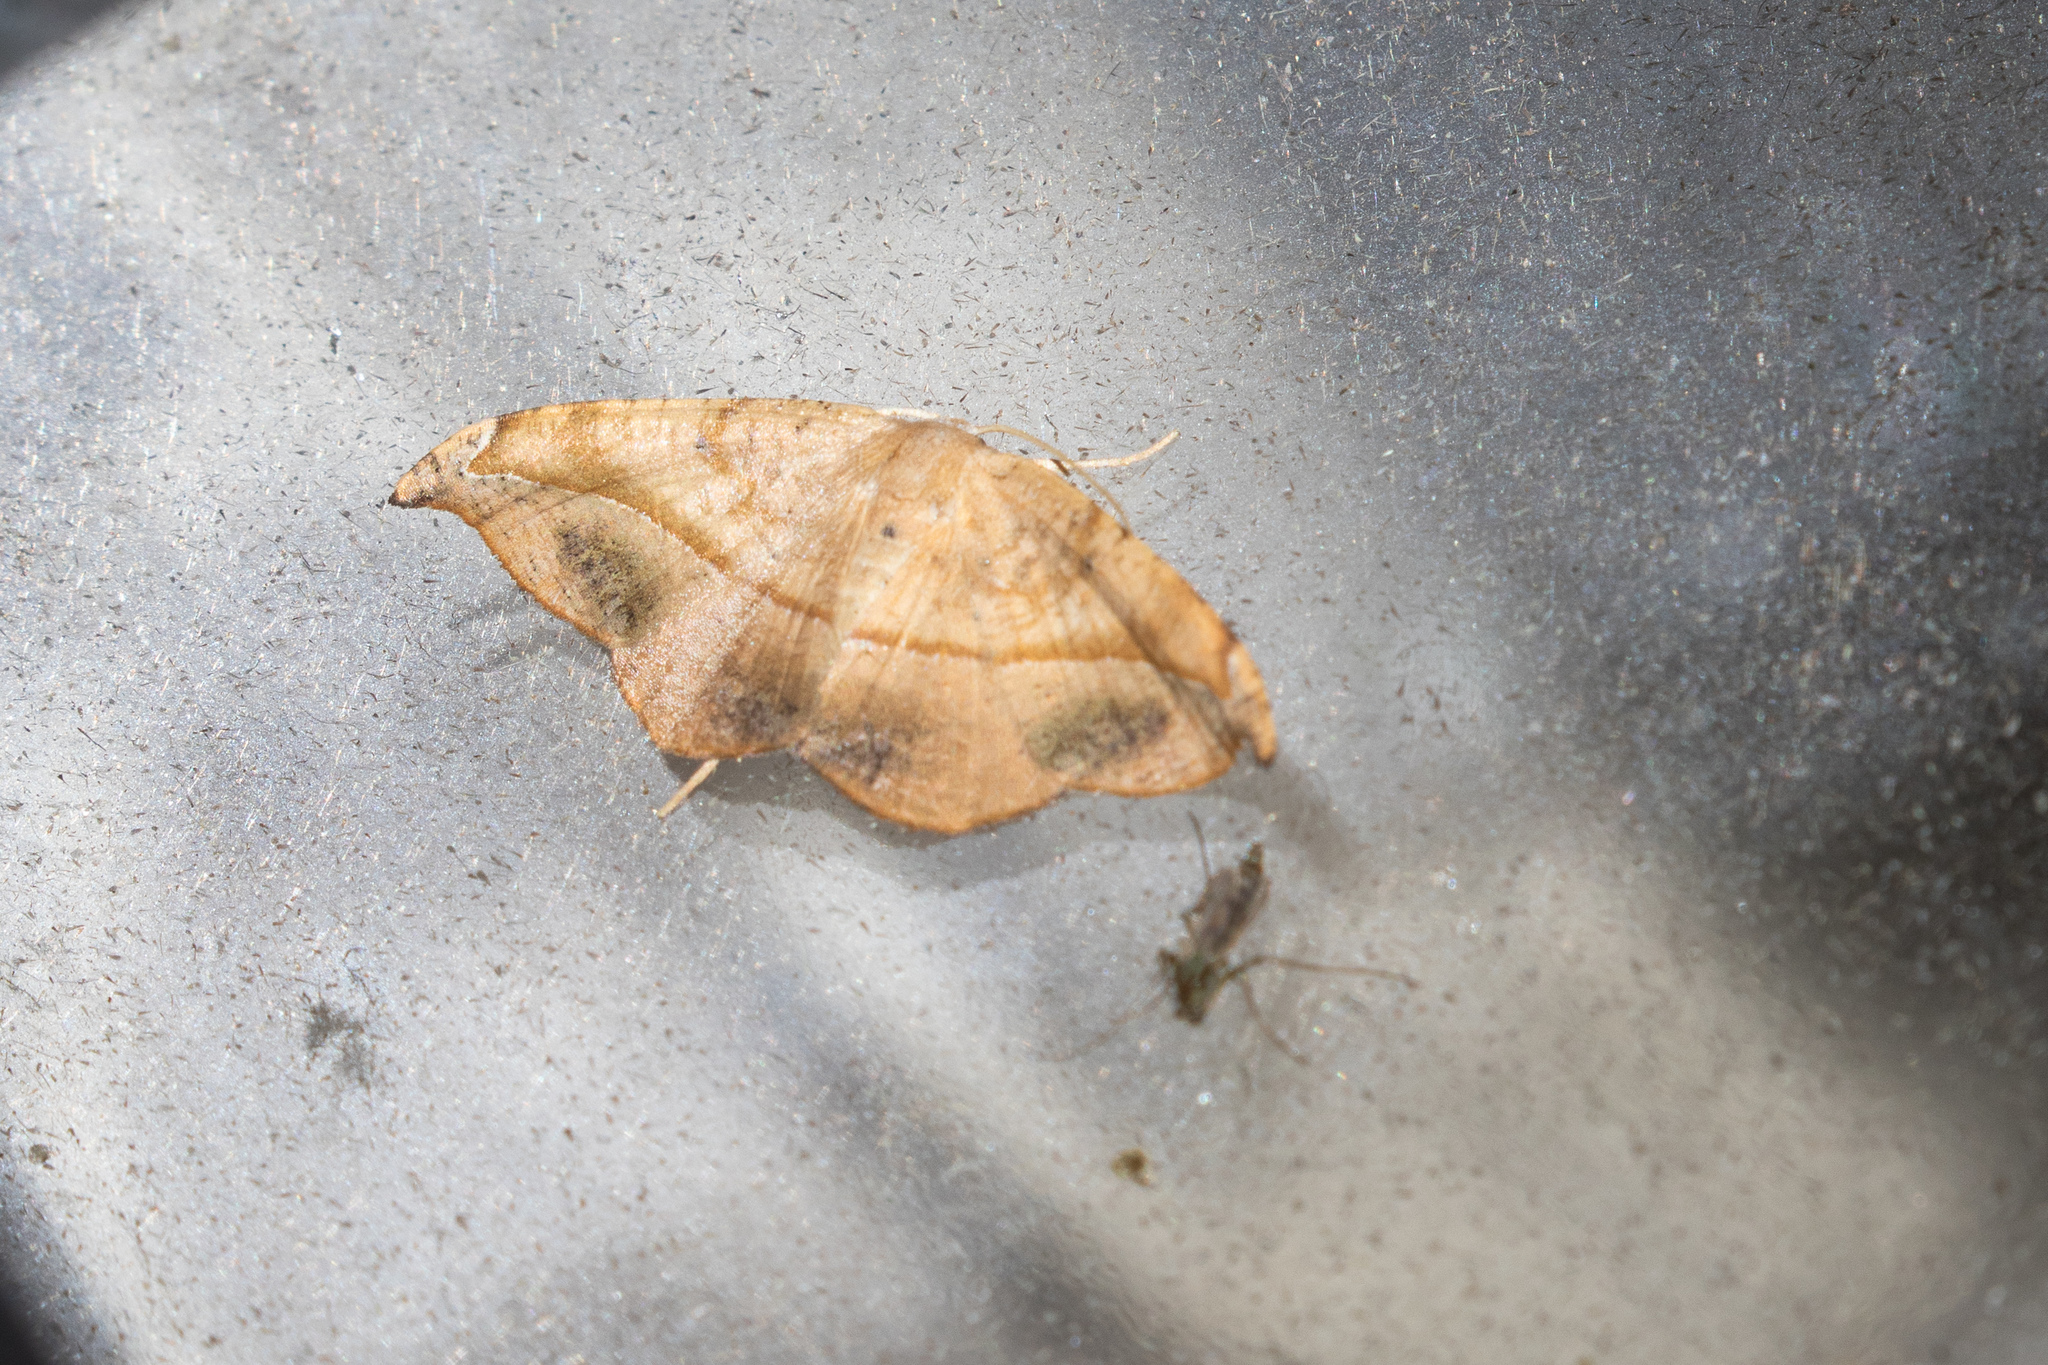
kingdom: Animalia
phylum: Arthropoda
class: Insecta
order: Lepidoptera
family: Geometridae
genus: Patalene
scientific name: Patalene olyzonaria
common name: Juniper geometer moth
